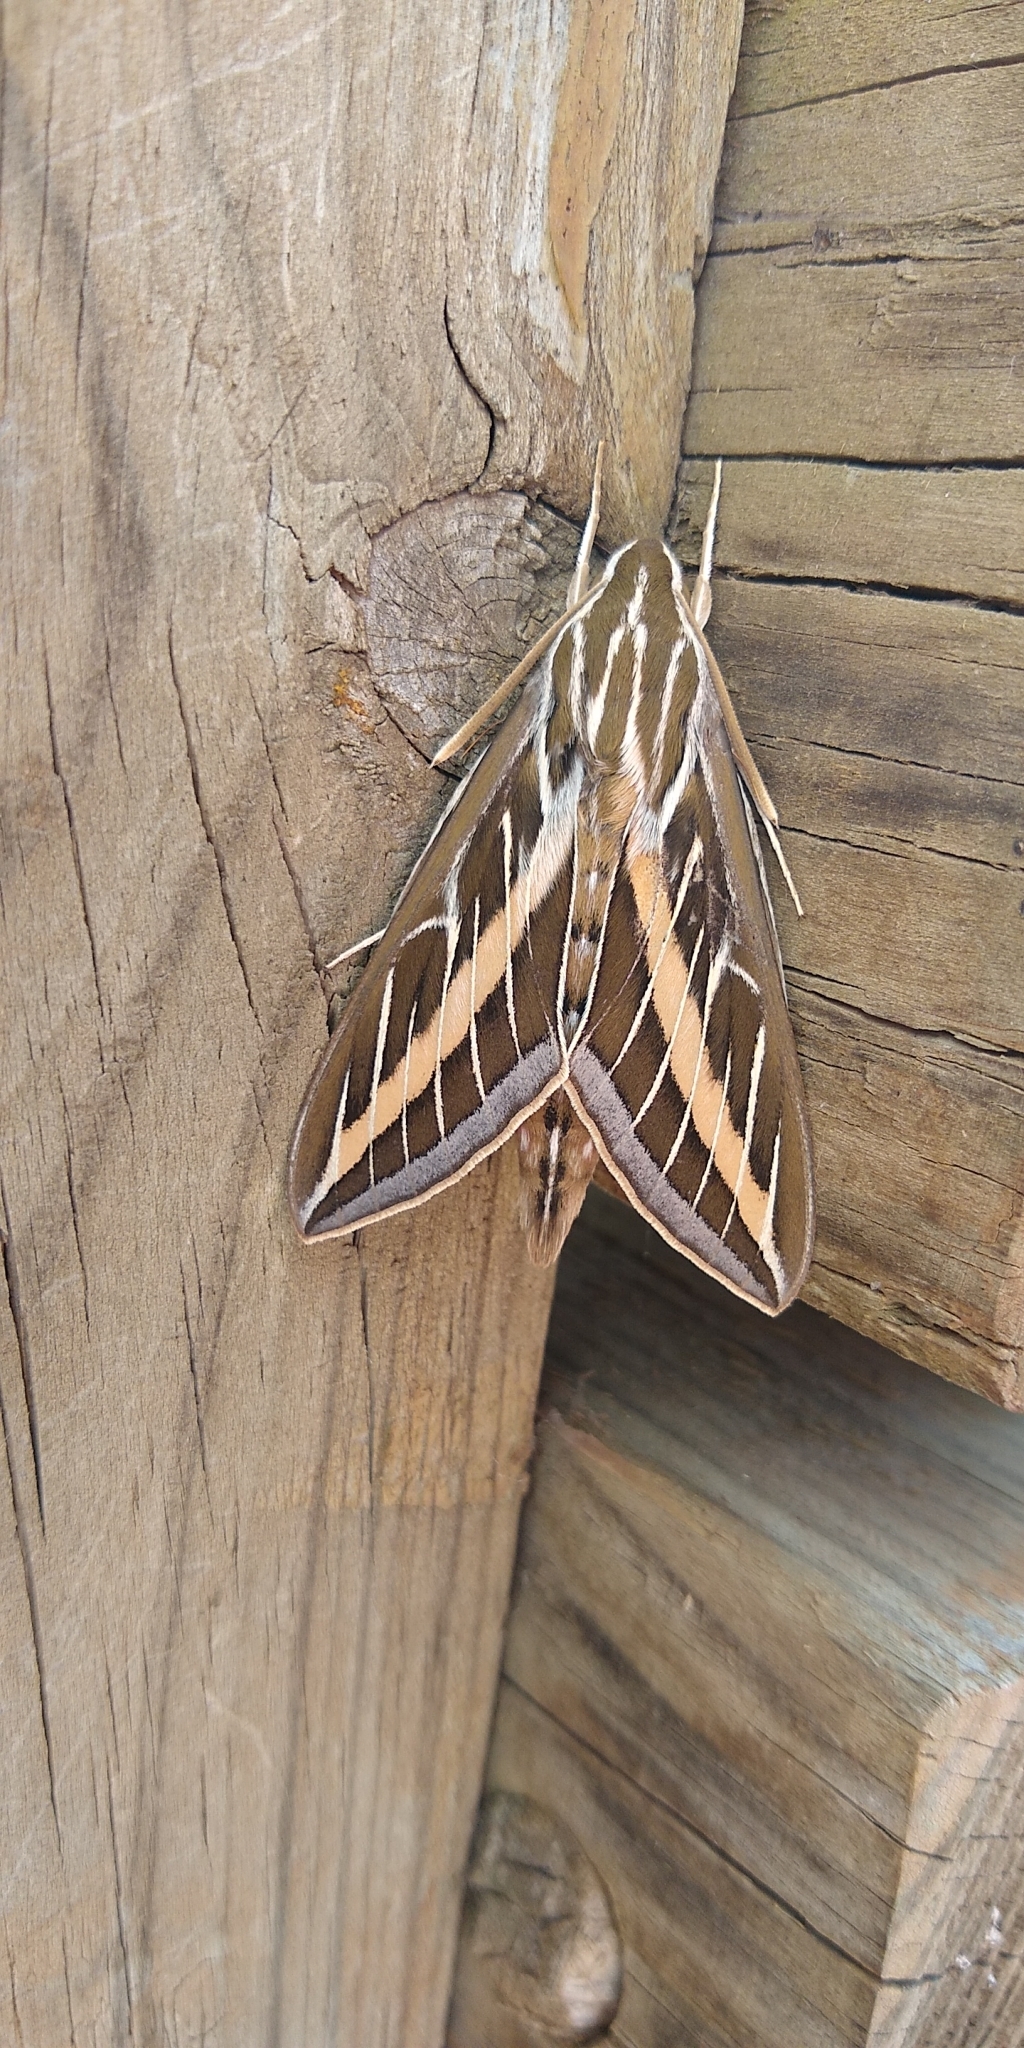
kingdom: Animalia
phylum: Arthropoda
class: Insecta
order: Lepidoptera
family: Sphingidae
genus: Hyles
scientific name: Hyles lineata
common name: White-lined sphinx
